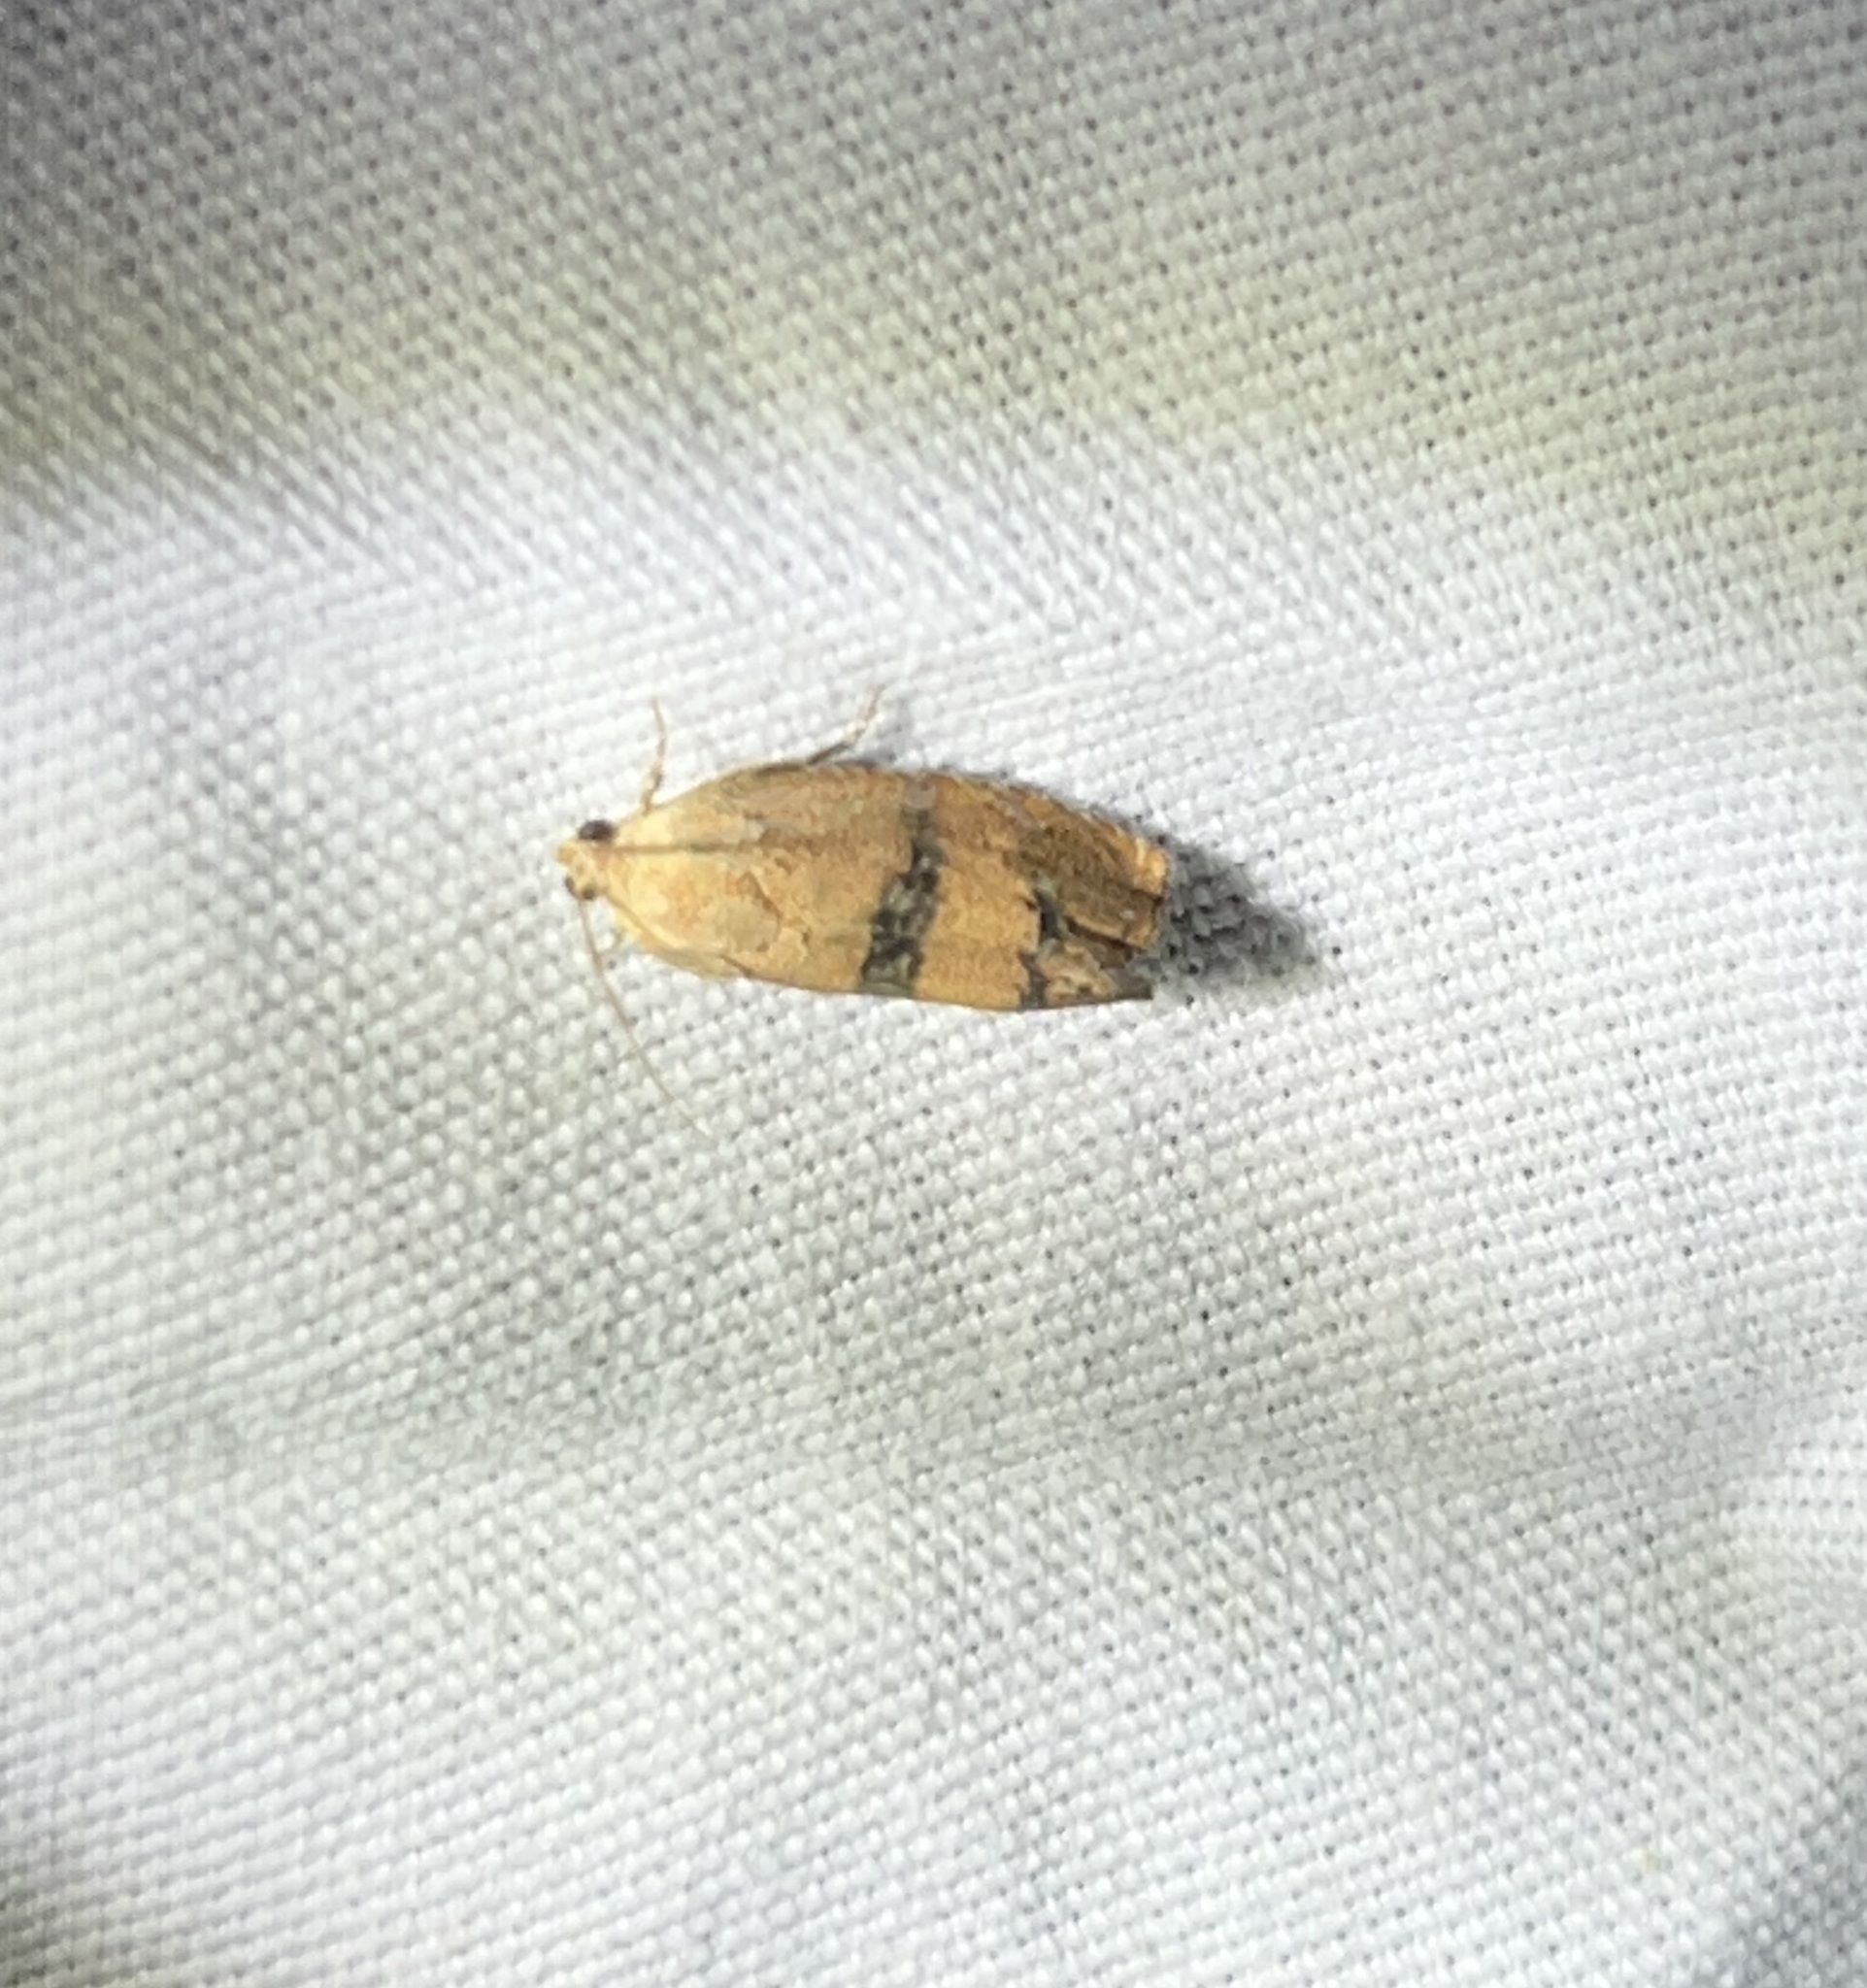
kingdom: Animalia
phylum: Arthropoda
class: Insecta
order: Lepidoptera
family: Tortricidae
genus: Cydia
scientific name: Cydia latiferreana
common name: Filbertworm moth
